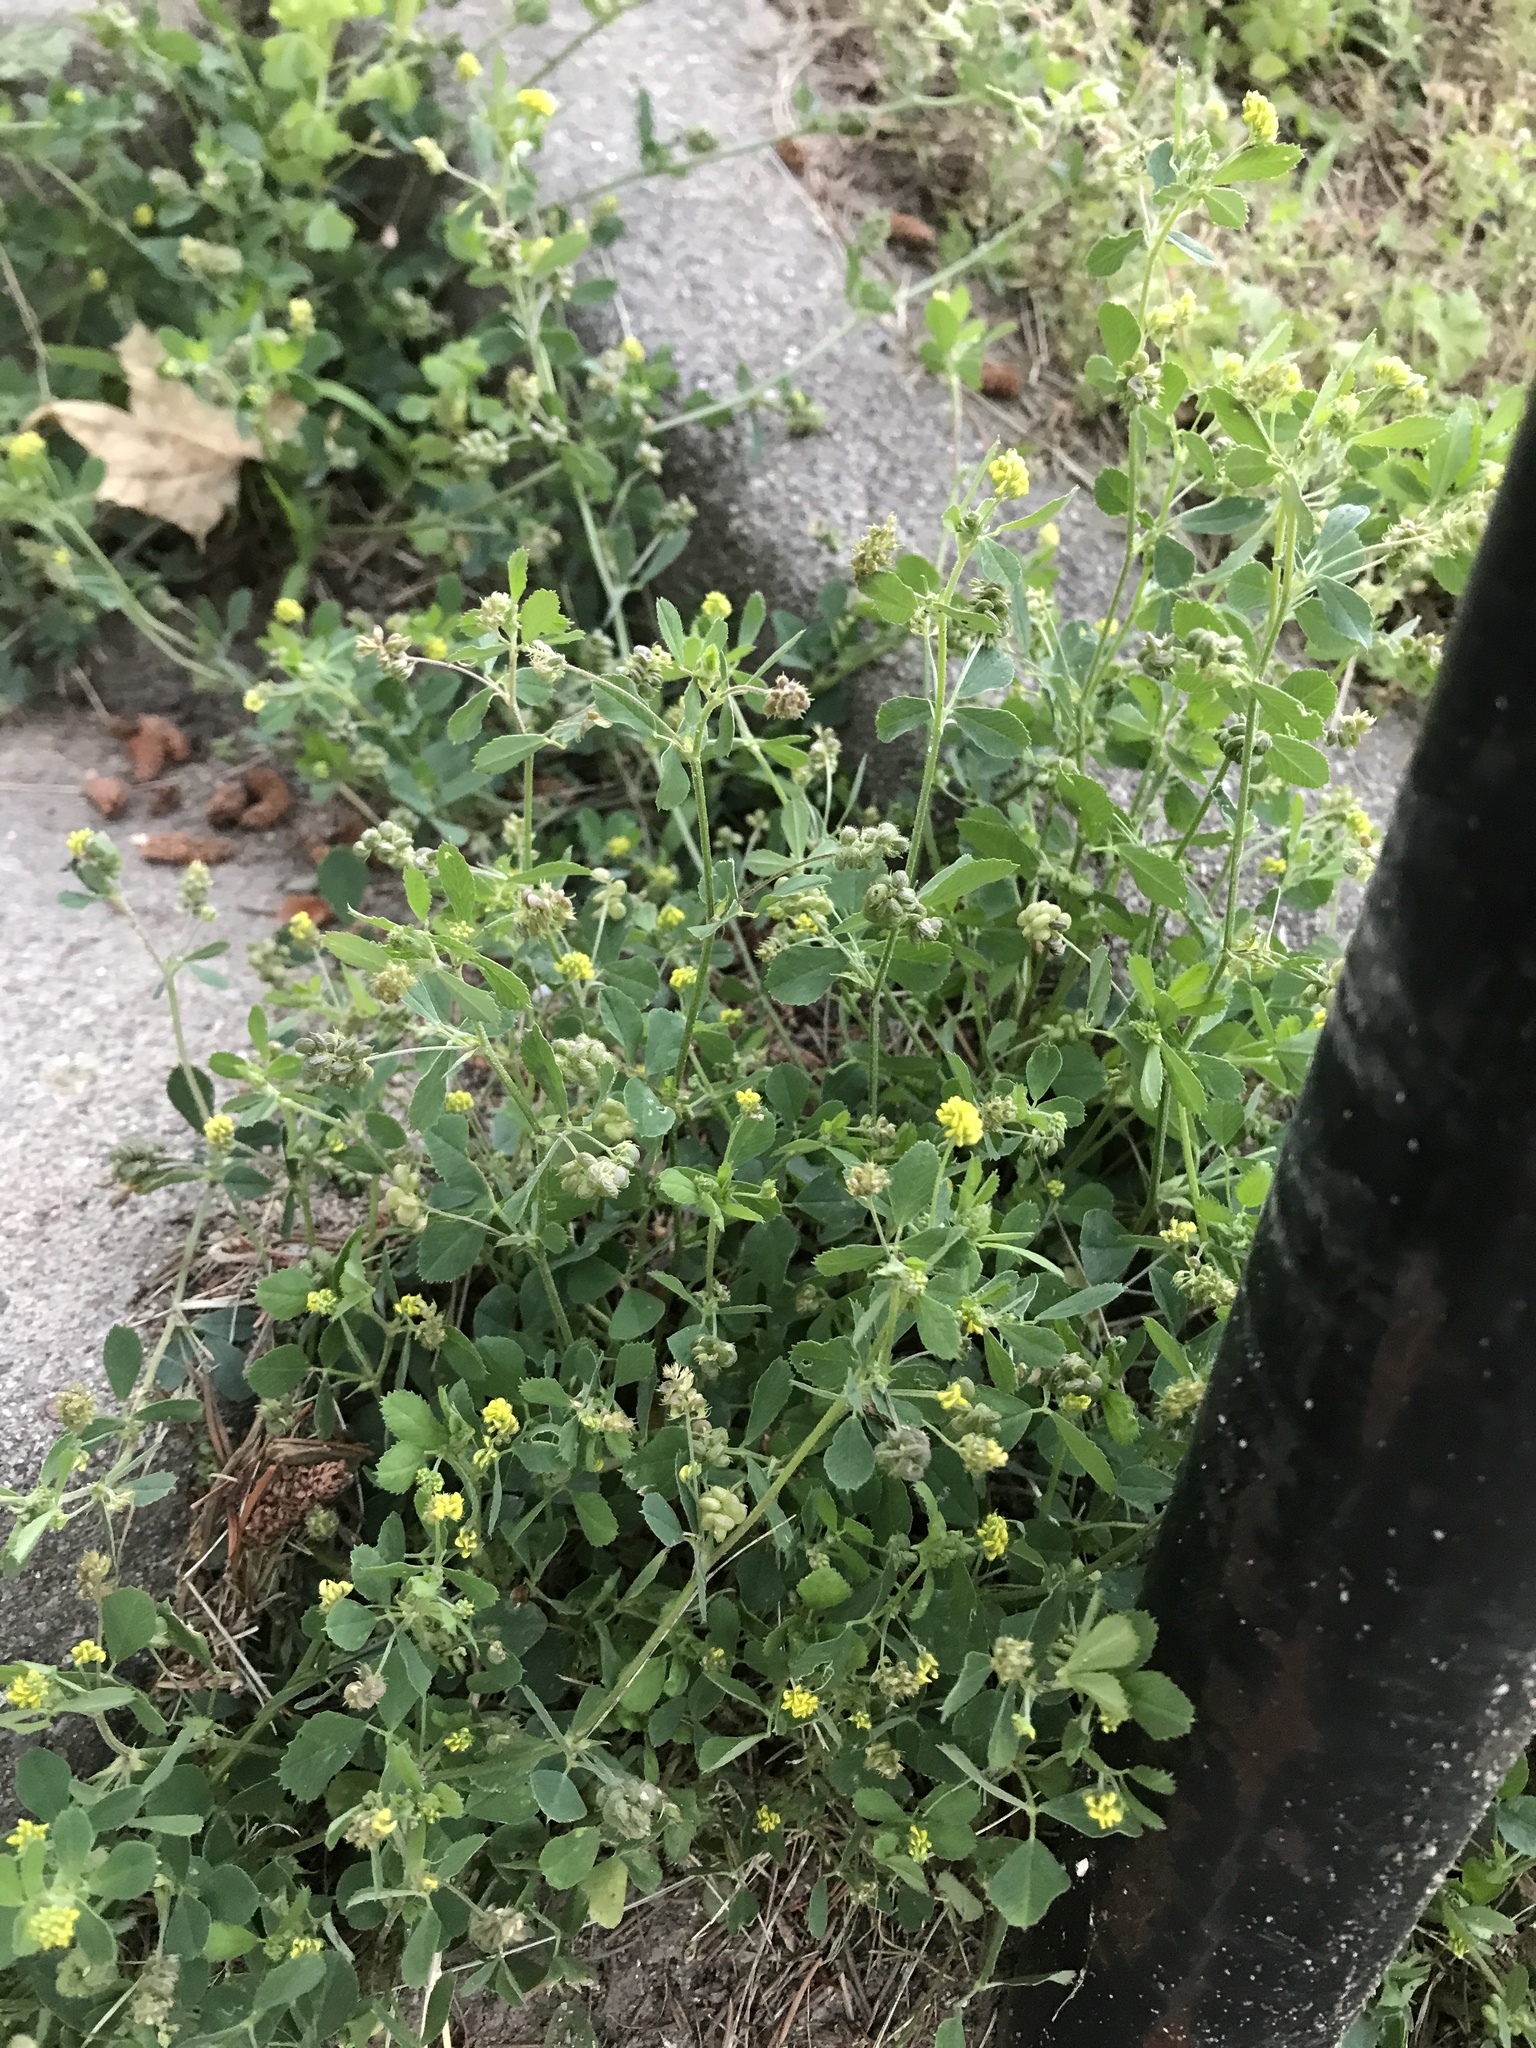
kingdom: Plantae
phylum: Tracheophyta
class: Magnoliopsida
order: Fabales
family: Fabaceae
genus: Medicago
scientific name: Medicago lupulina
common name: Black medick
